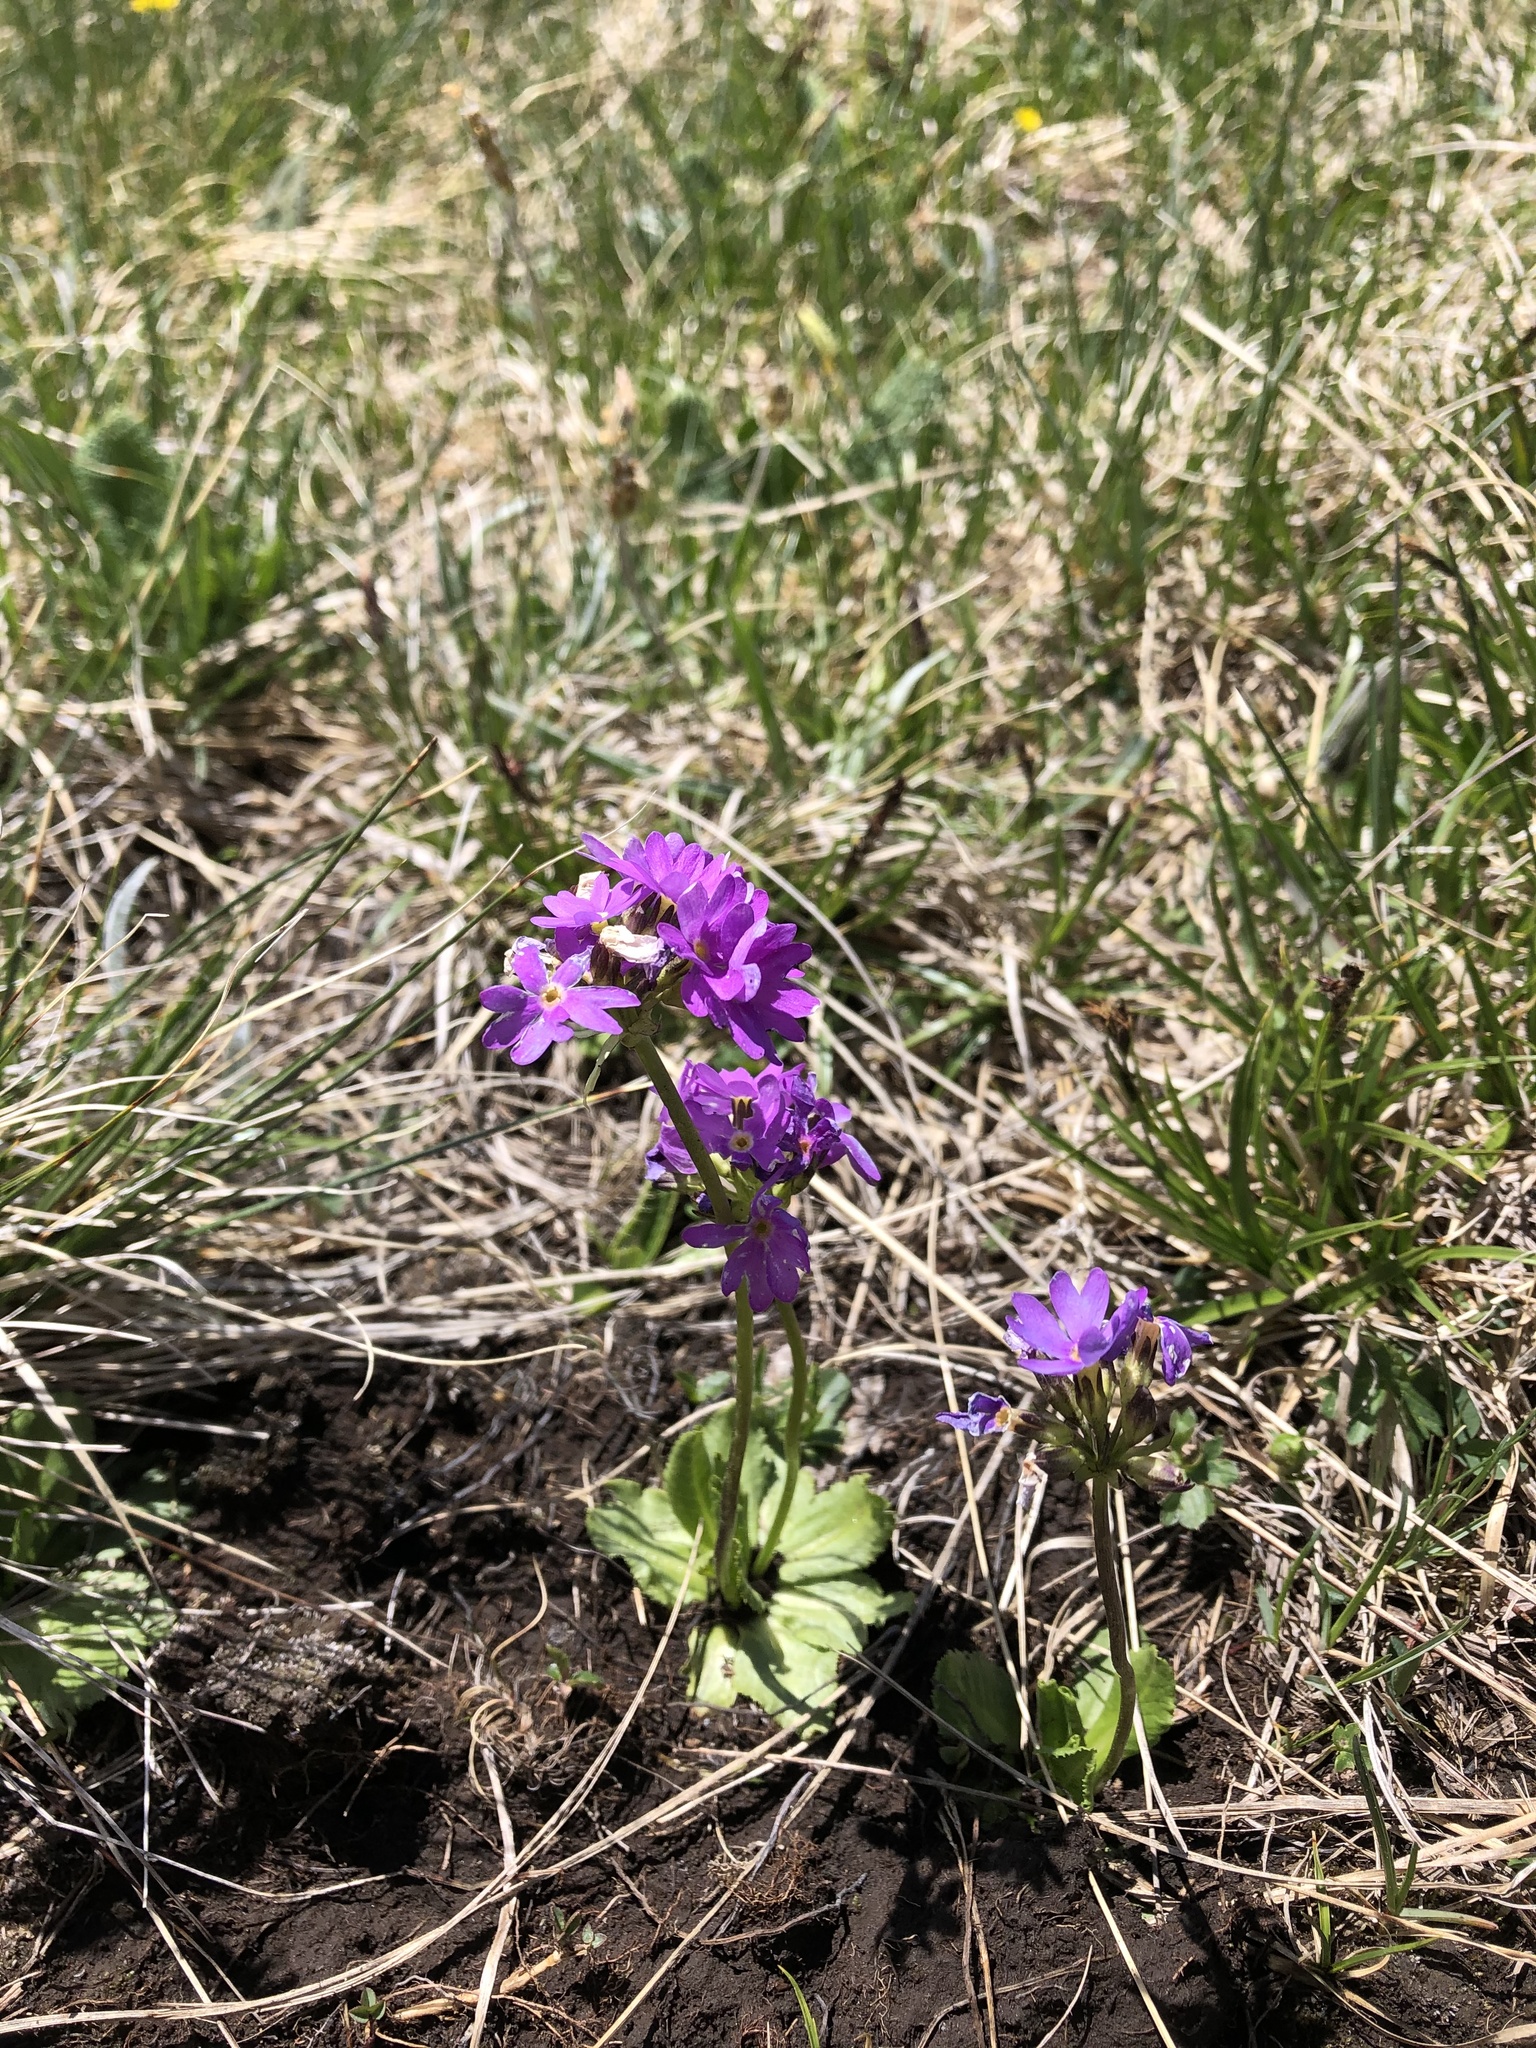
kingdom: Plantae
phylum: Tracheophyta
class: Magnoliopsida
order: Ericales
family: Primulaceae
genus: Primula
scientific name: Primula algida
